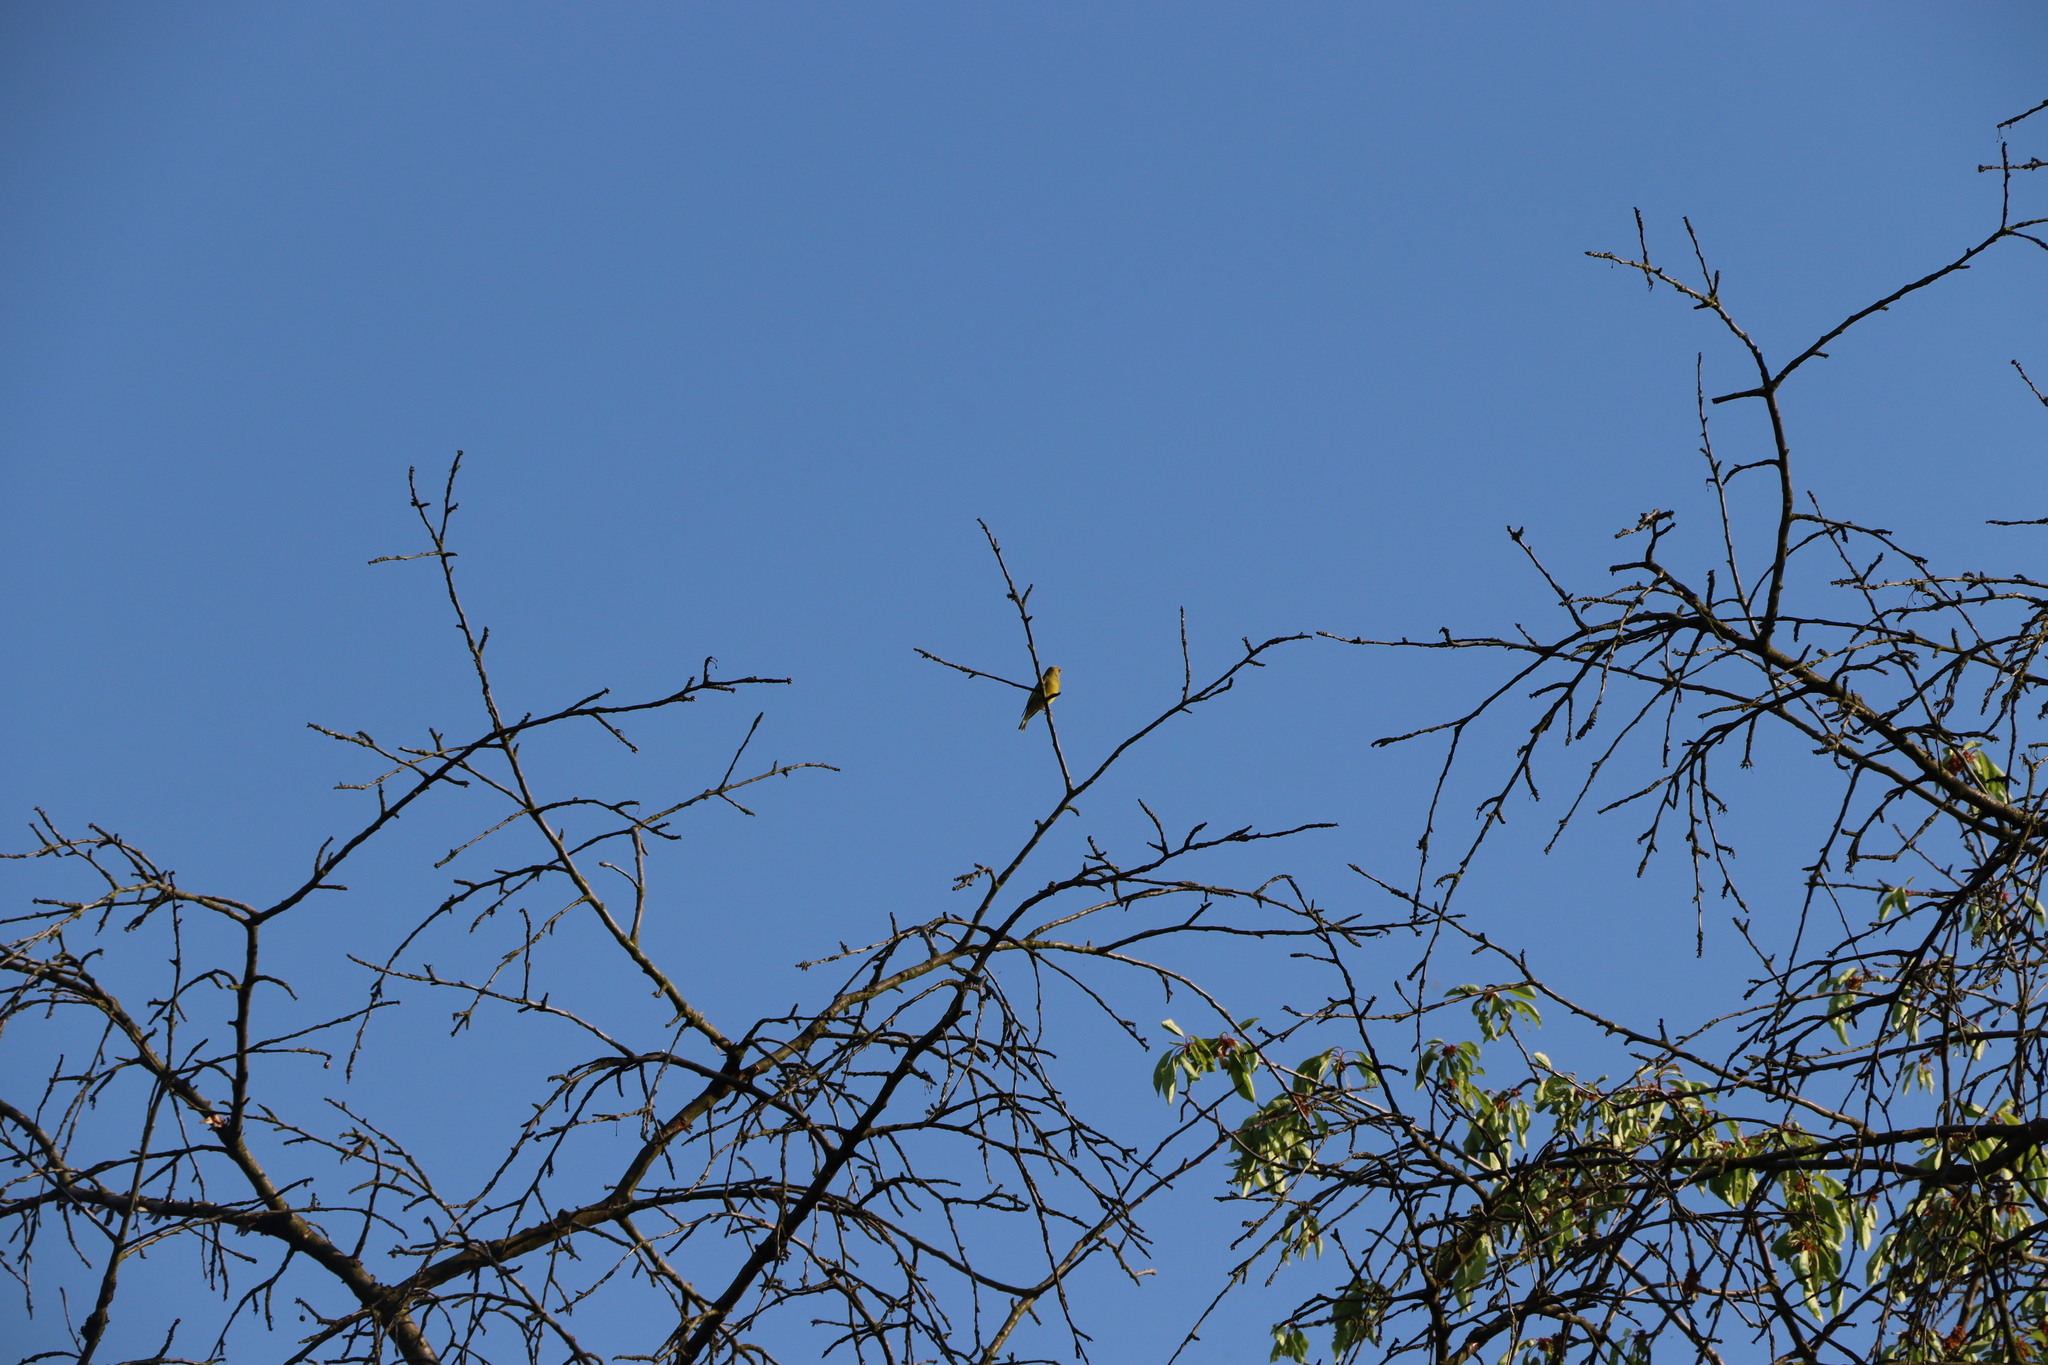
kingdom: Plantae
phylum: Tracheophyta
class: Liliopsida
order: Poales
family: Poaceae
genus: Chloris
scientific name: Chloris chloris
